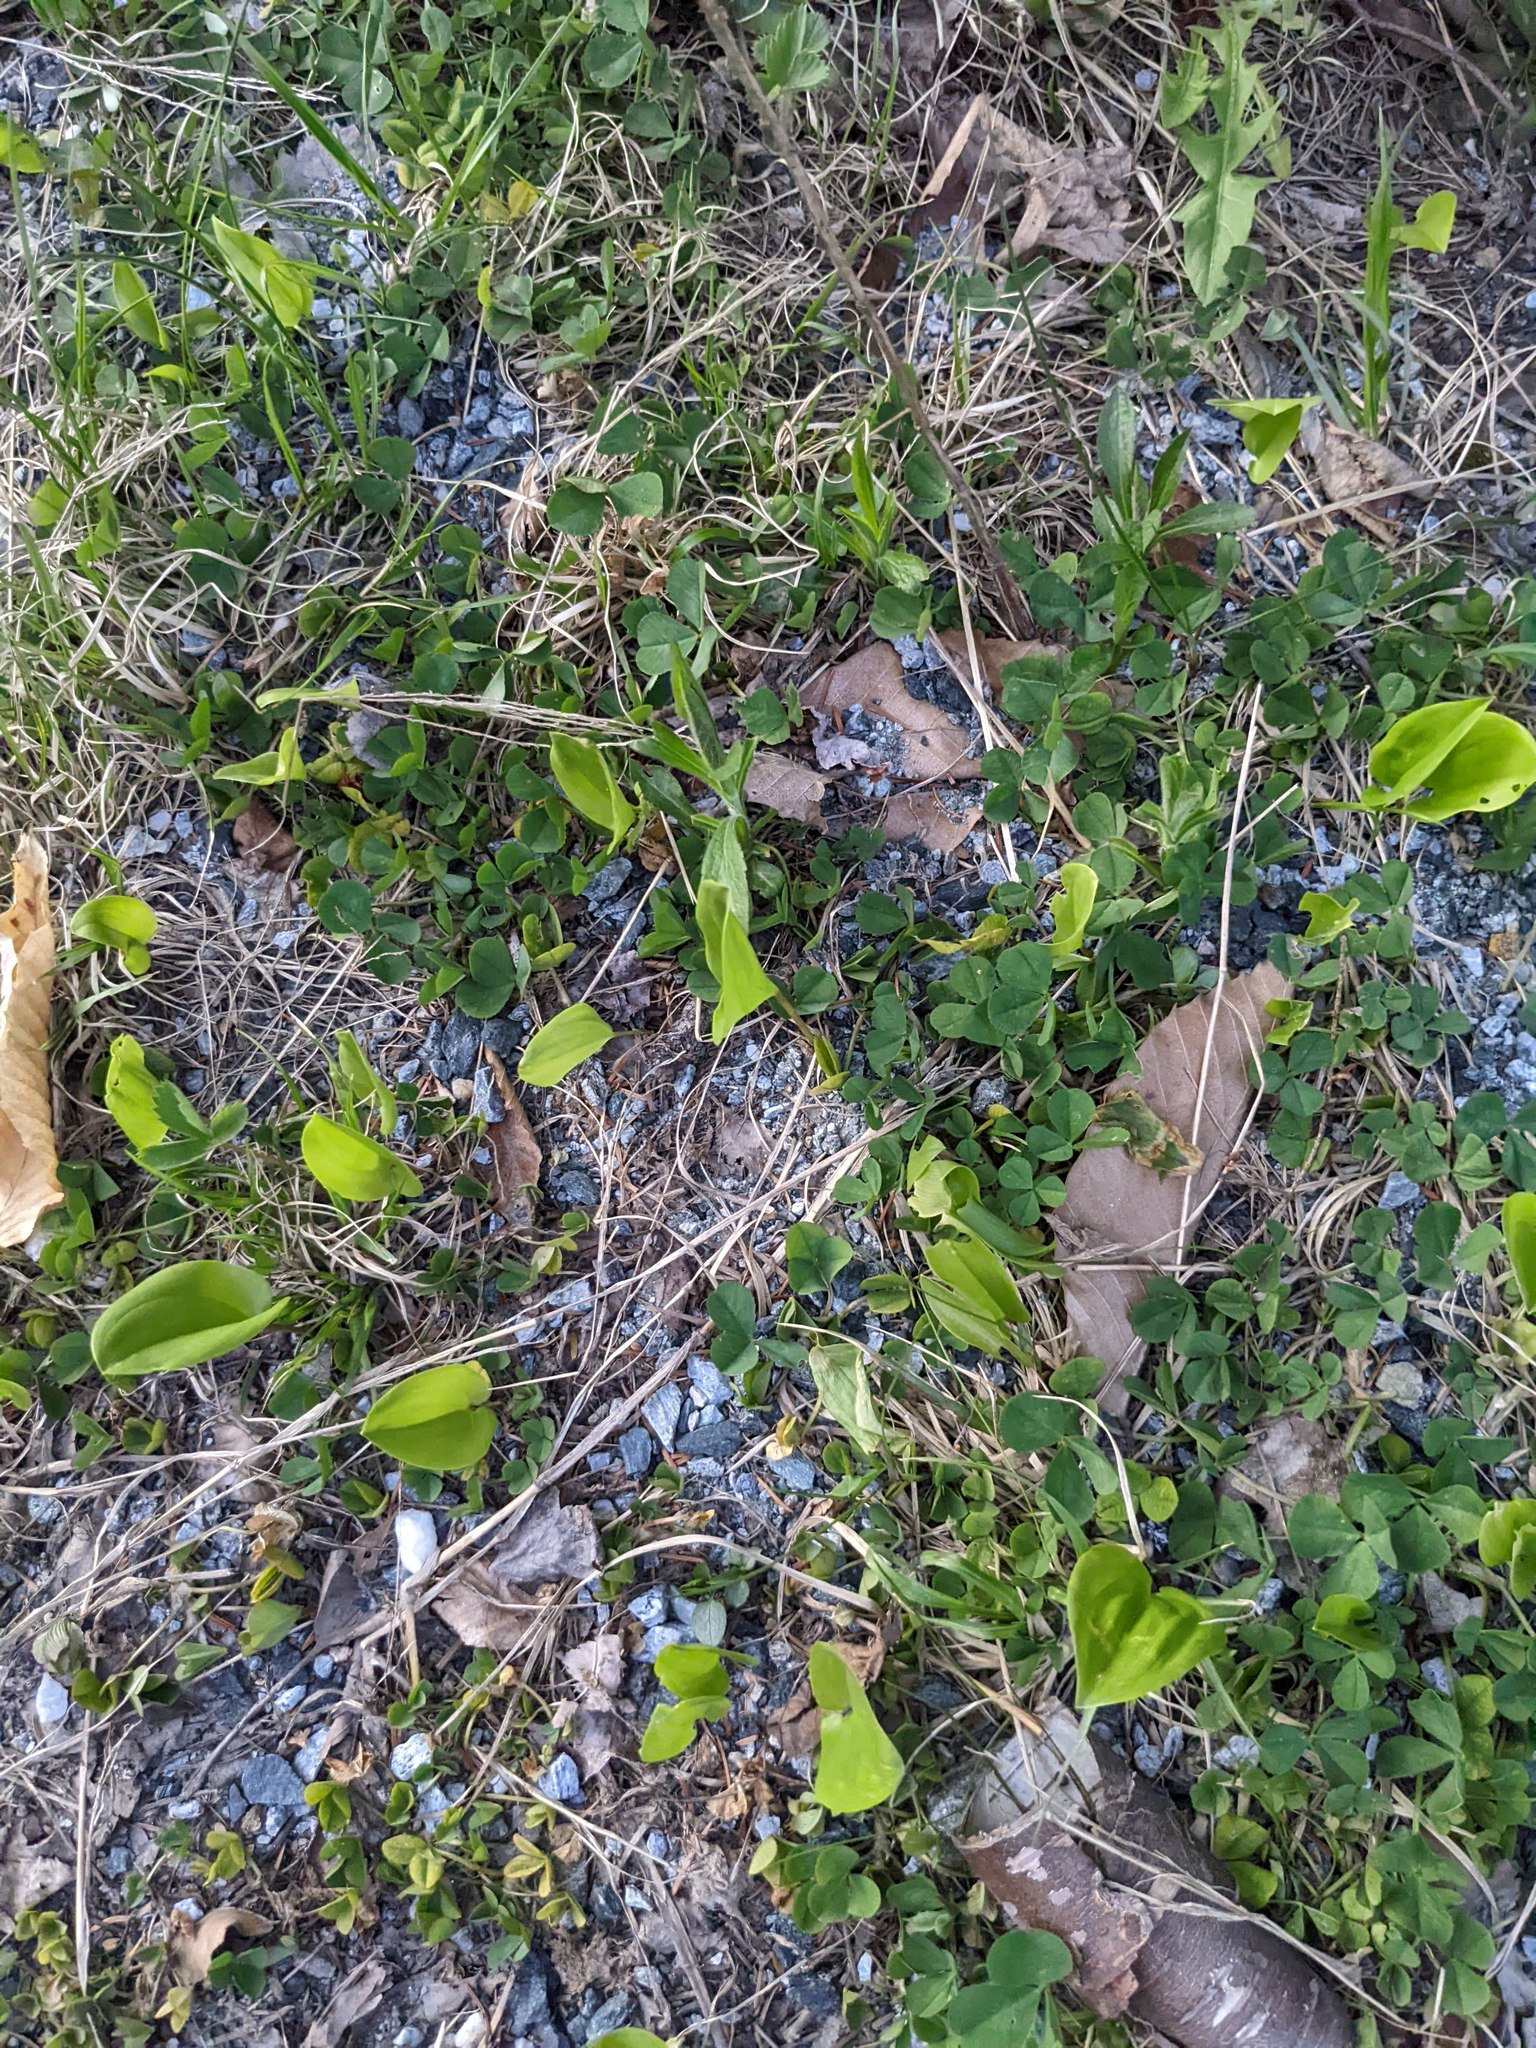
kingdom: Plantae
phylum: Tracheophyta
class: Liliopsida
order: Asparagales
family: Asparagaceae
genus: Maianthemum
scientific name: Maianthemum canadense
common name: False lily-of-the-valley
